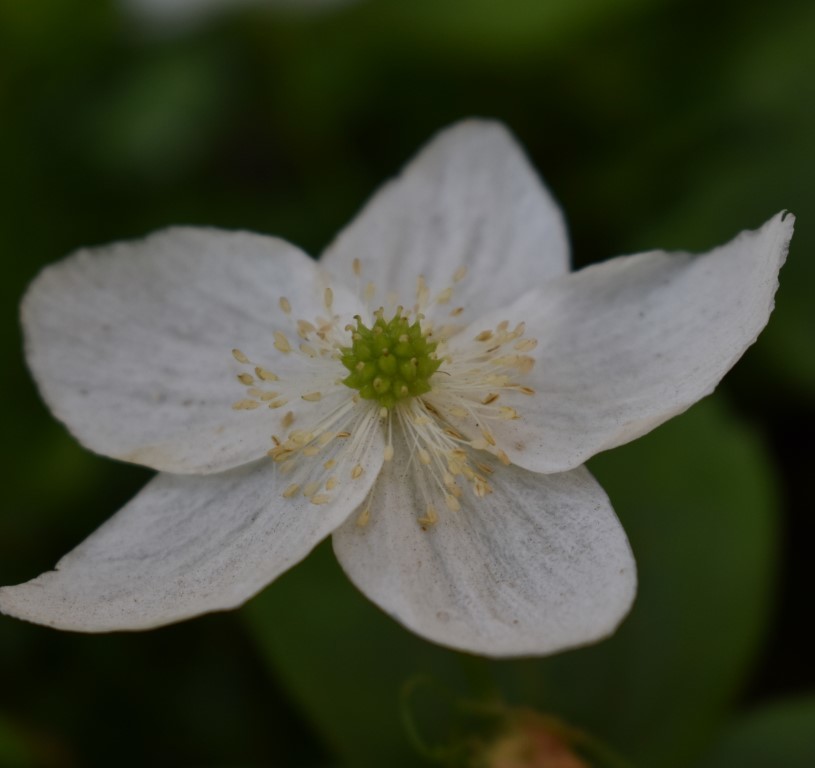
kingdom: Plantae
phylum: Tracheophyta
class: Magnoliopsida
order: Ranunculales
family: Ranunculaceae
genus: Anemonastrum
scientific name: Anemonastrum deltoideum
